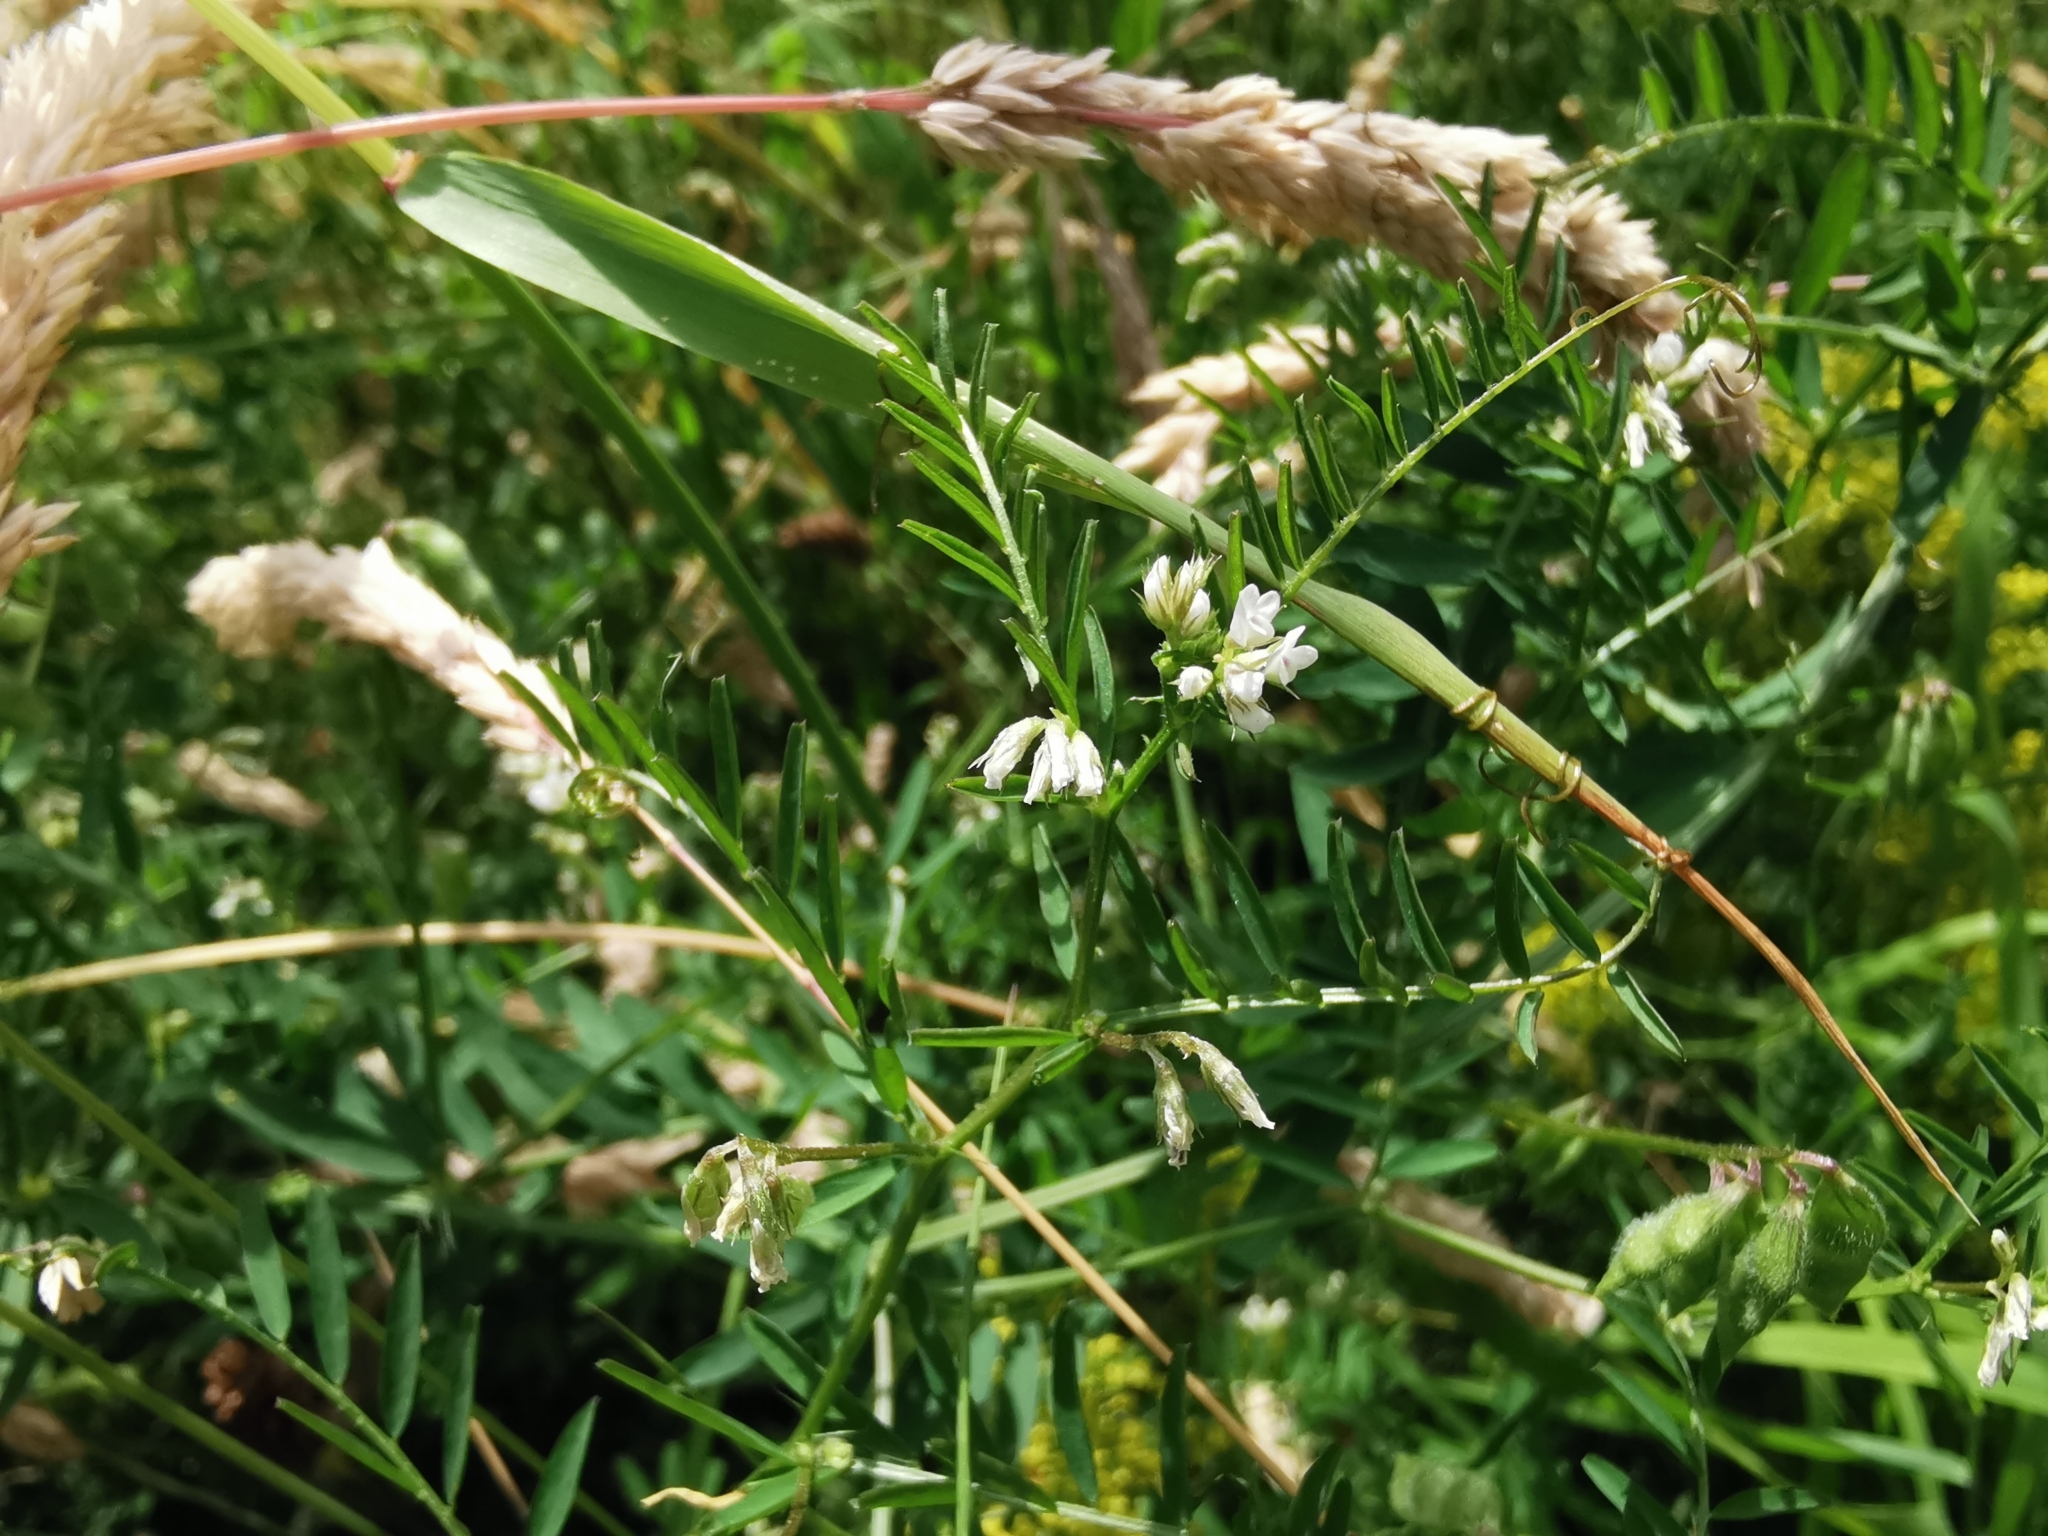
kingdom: Plantae
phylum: Tracheophyta
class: Magnoliopsida
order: Fabales
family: Fabaceae
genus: Vicia
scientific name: Vicia hirsuta
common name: Tiny vetch
